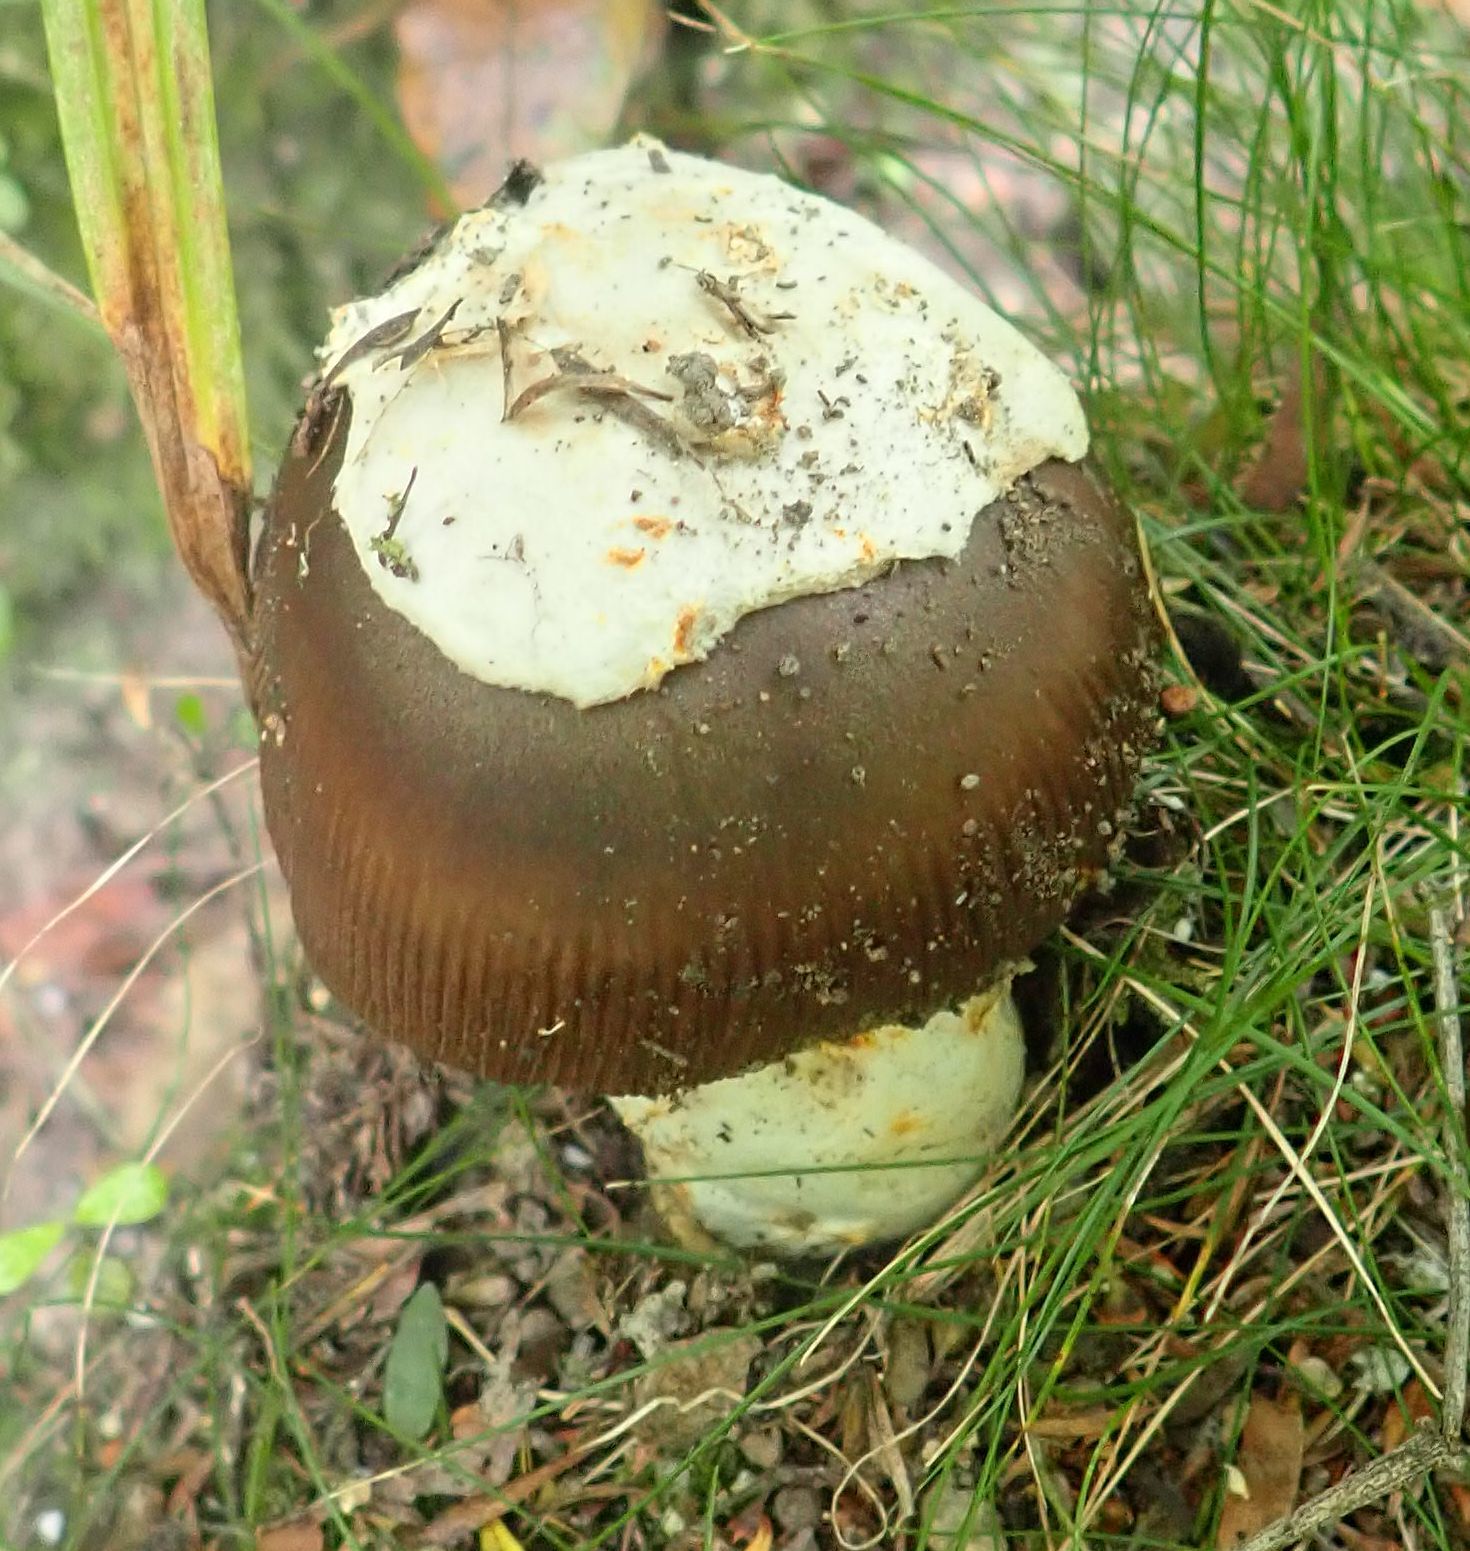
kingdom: Fungi
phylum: Basidiomycota
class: Agaricomycetes
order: Agaricales
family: Amanitaceae
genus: Amanita
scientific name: Amanita pekeoides
